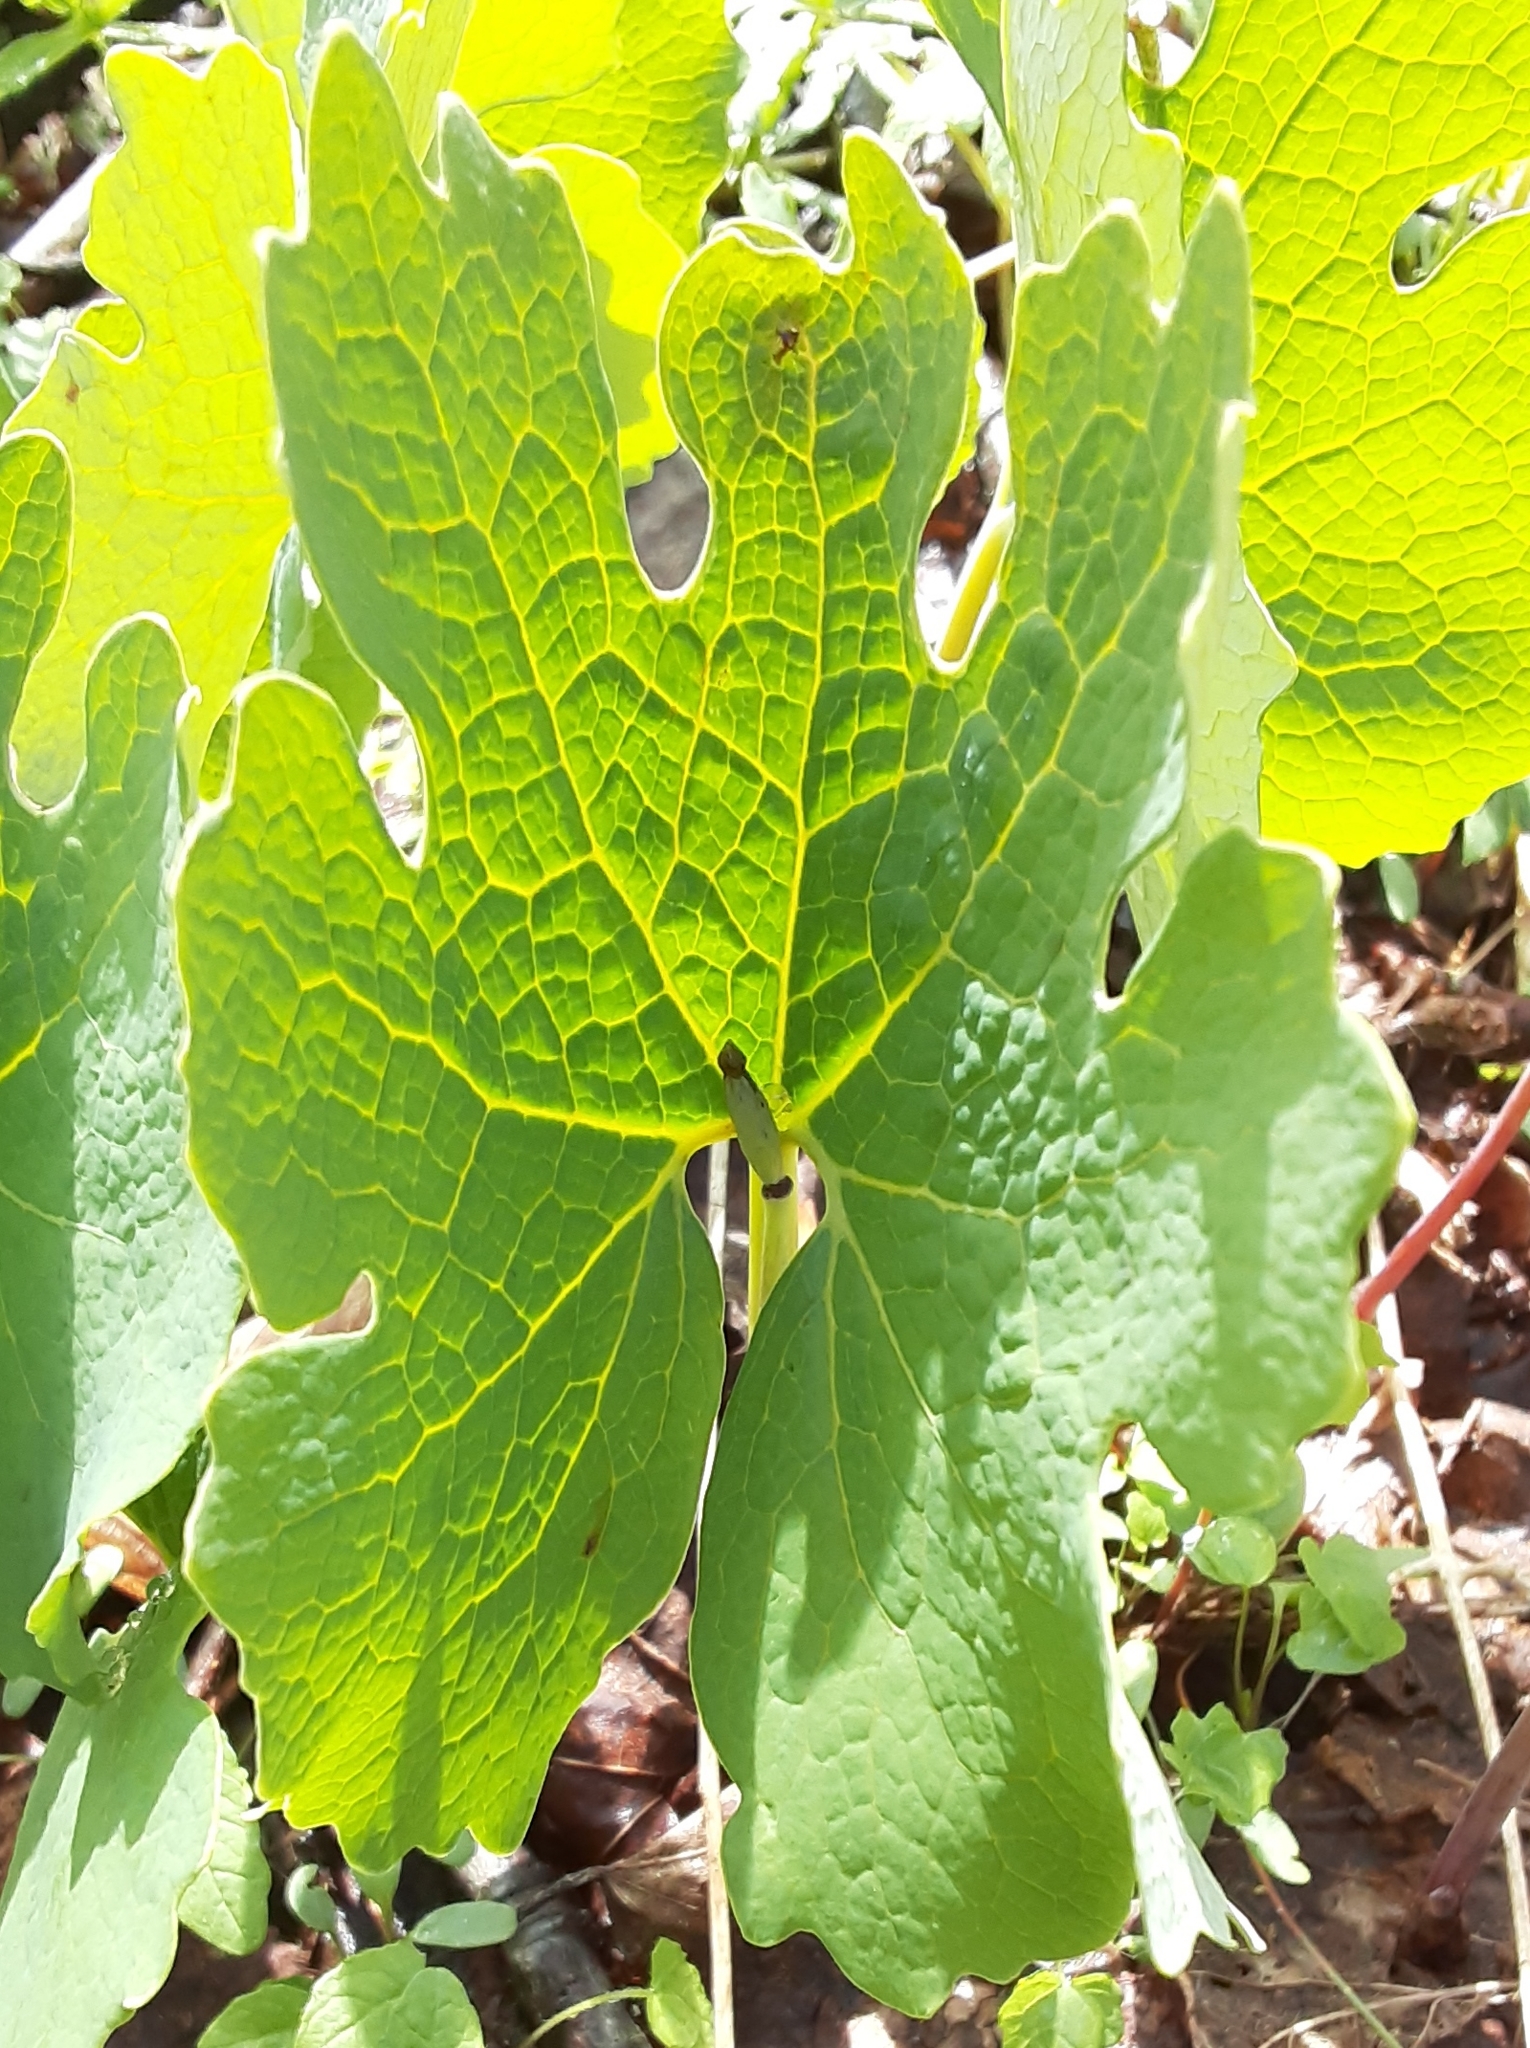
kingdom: Plantae
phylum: Tracheophyta
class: Magnoliopsida
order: Ranunculales
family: Papaveraceae
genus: Sanguinaria
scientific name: Sanguinaria canadensis
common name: Bloodroot
